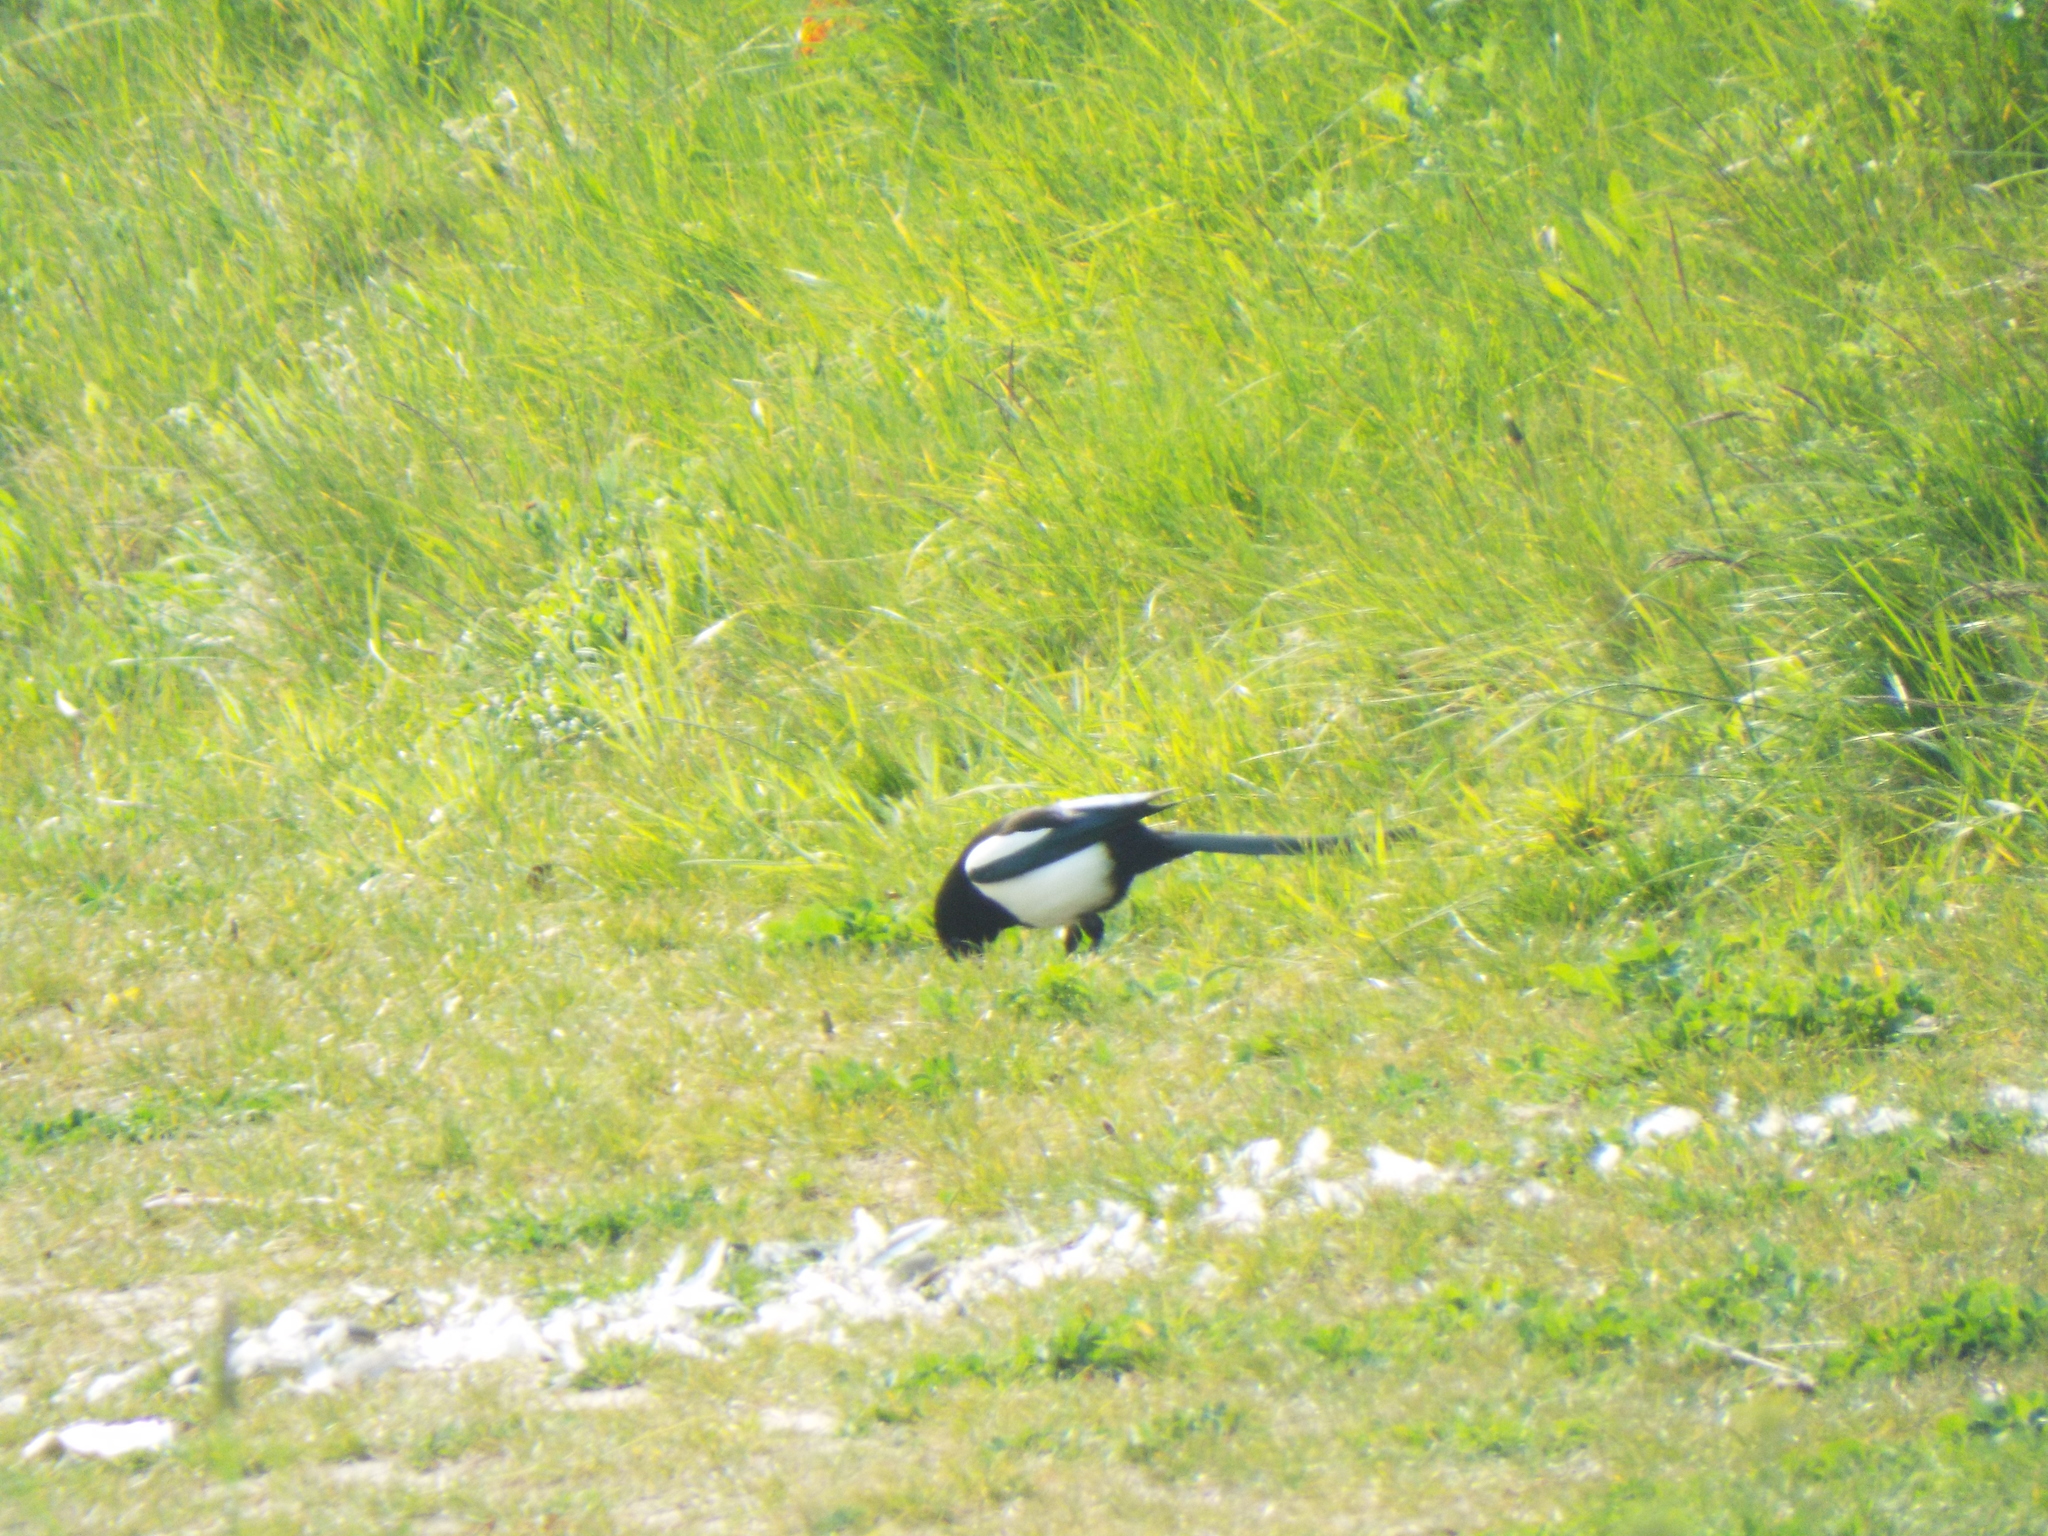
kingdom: Animalia
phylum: Chordata
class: Aves
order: Passeriformes
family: Corvidae
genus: Pica
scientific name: Pica pica
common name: Eurasian magpie
